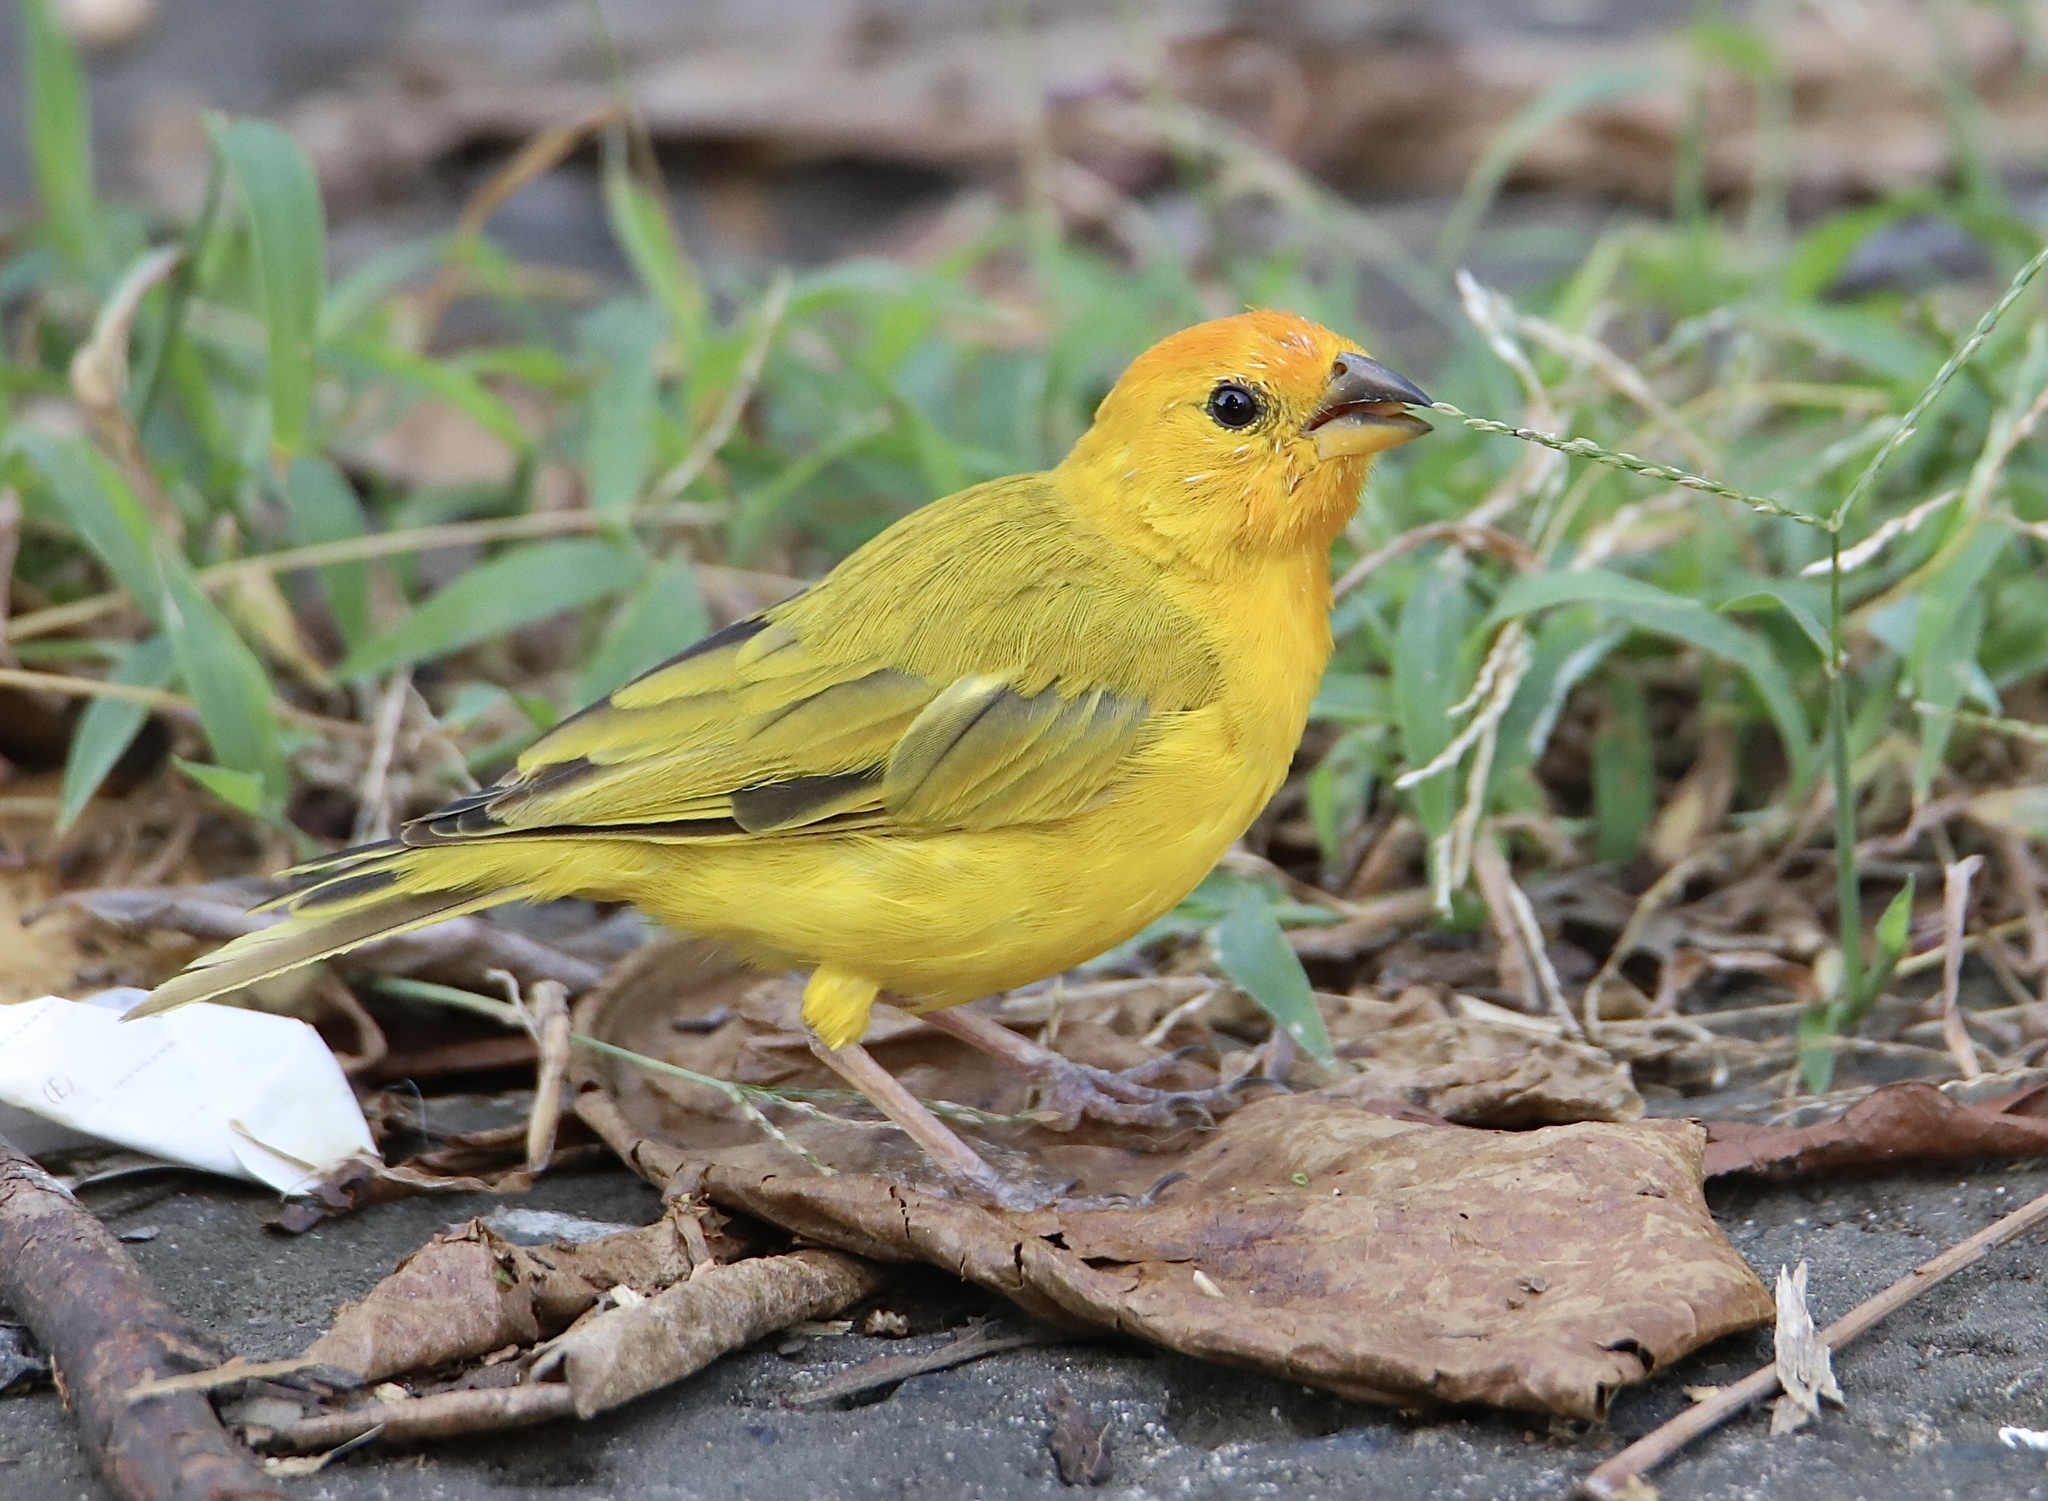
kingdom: Animalia
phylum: Chordata
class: Aves
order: Passeriformes
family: Thraupidae
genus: Sicalis
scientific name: Sicalis flaveola
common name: Saffron finch
